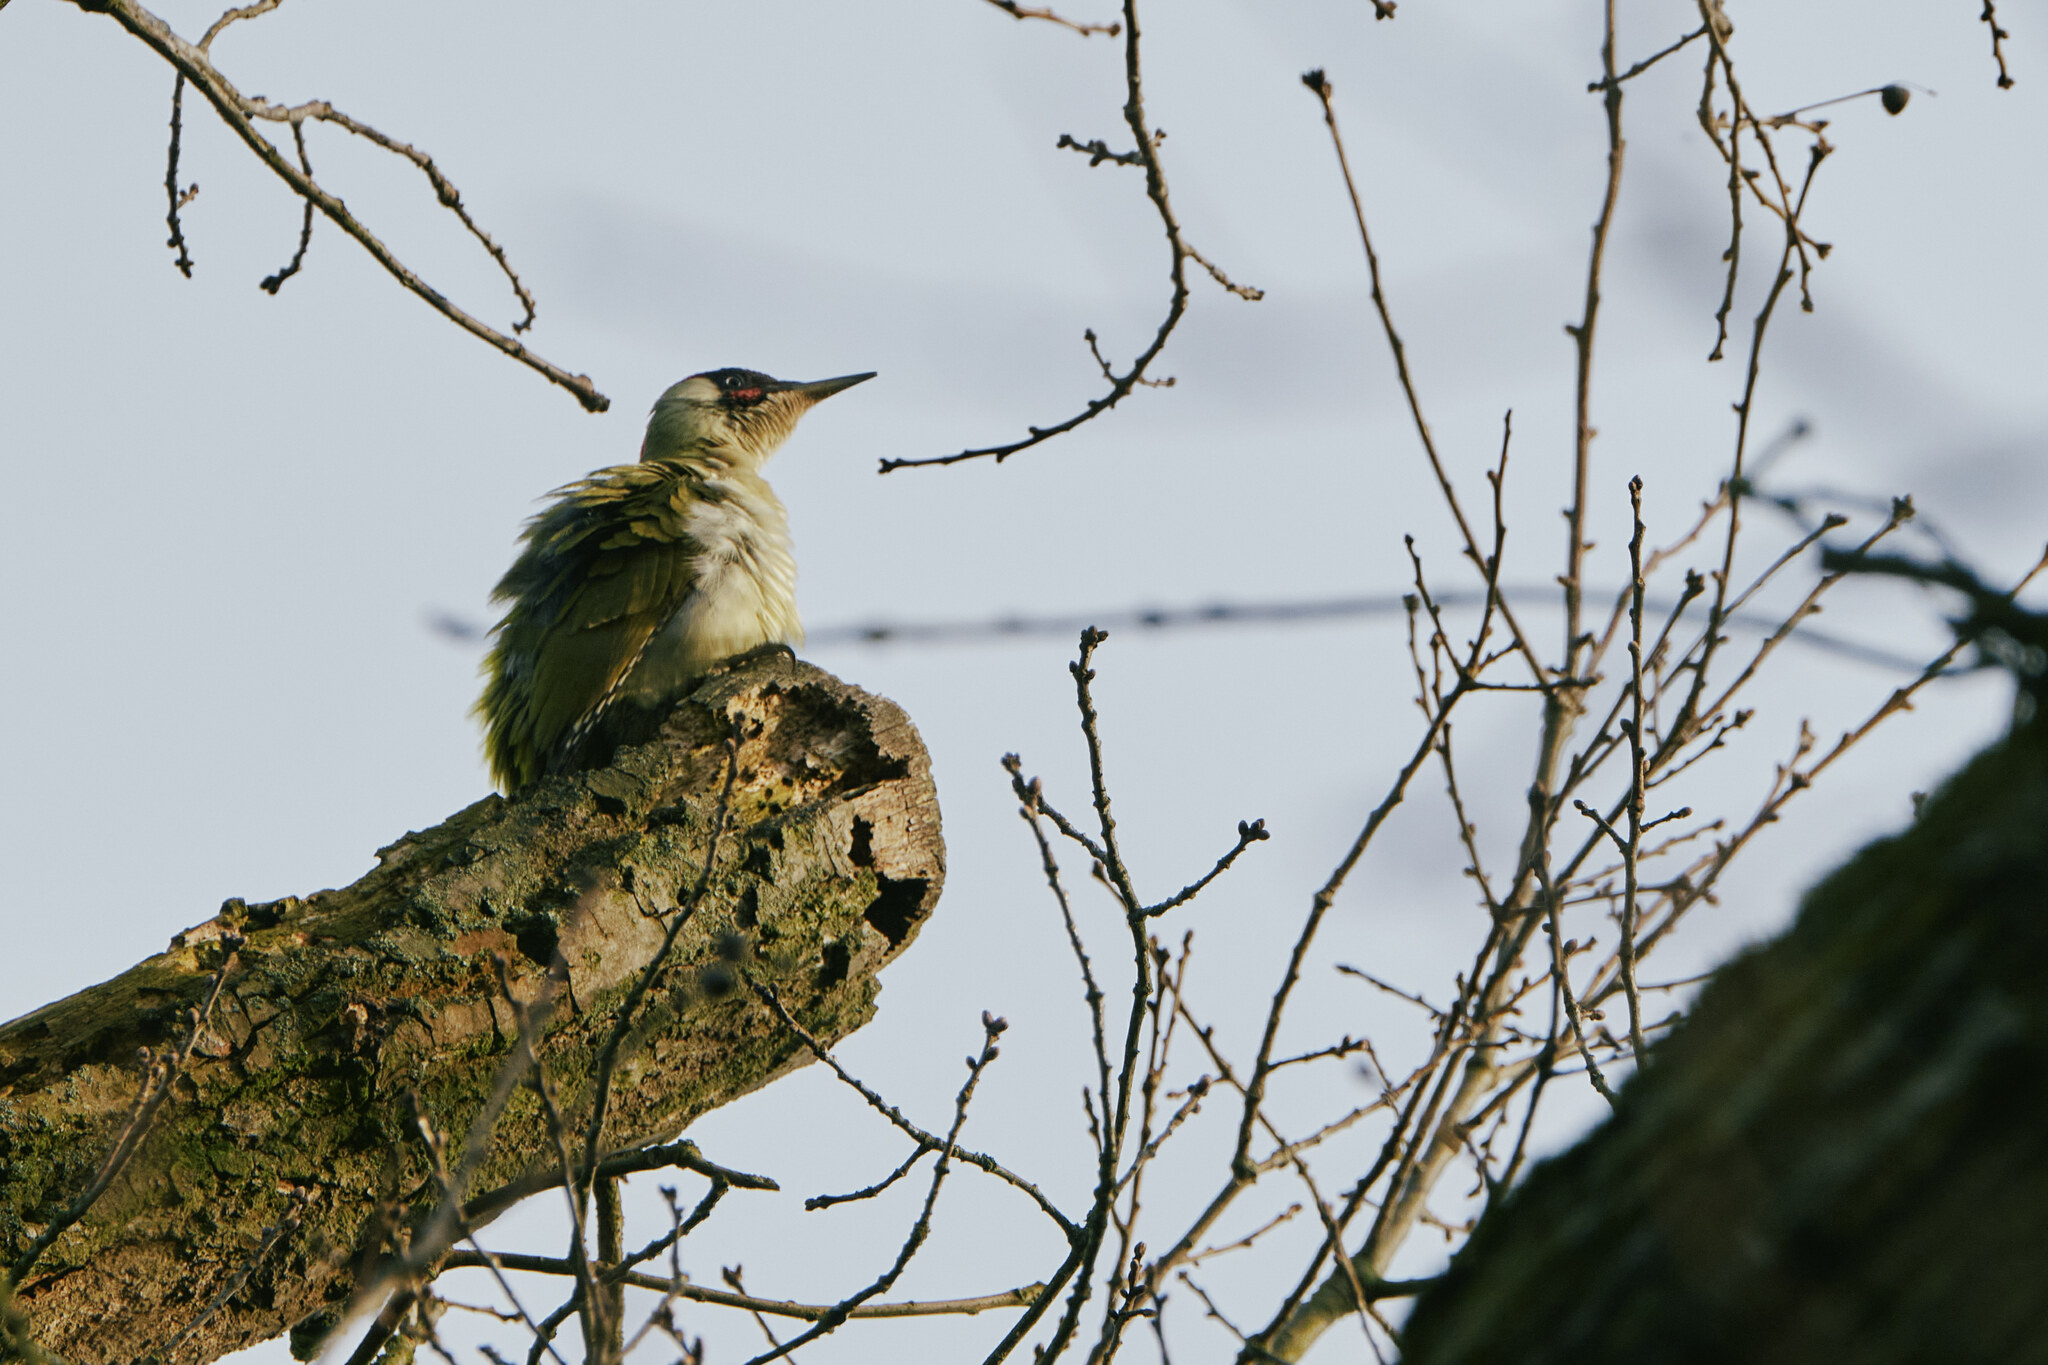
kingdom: Animalia
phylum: Chordata
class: Aves
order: Piciformes
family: Picidae
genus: Picus
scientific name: Picus viridis
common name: European green woodpecker
